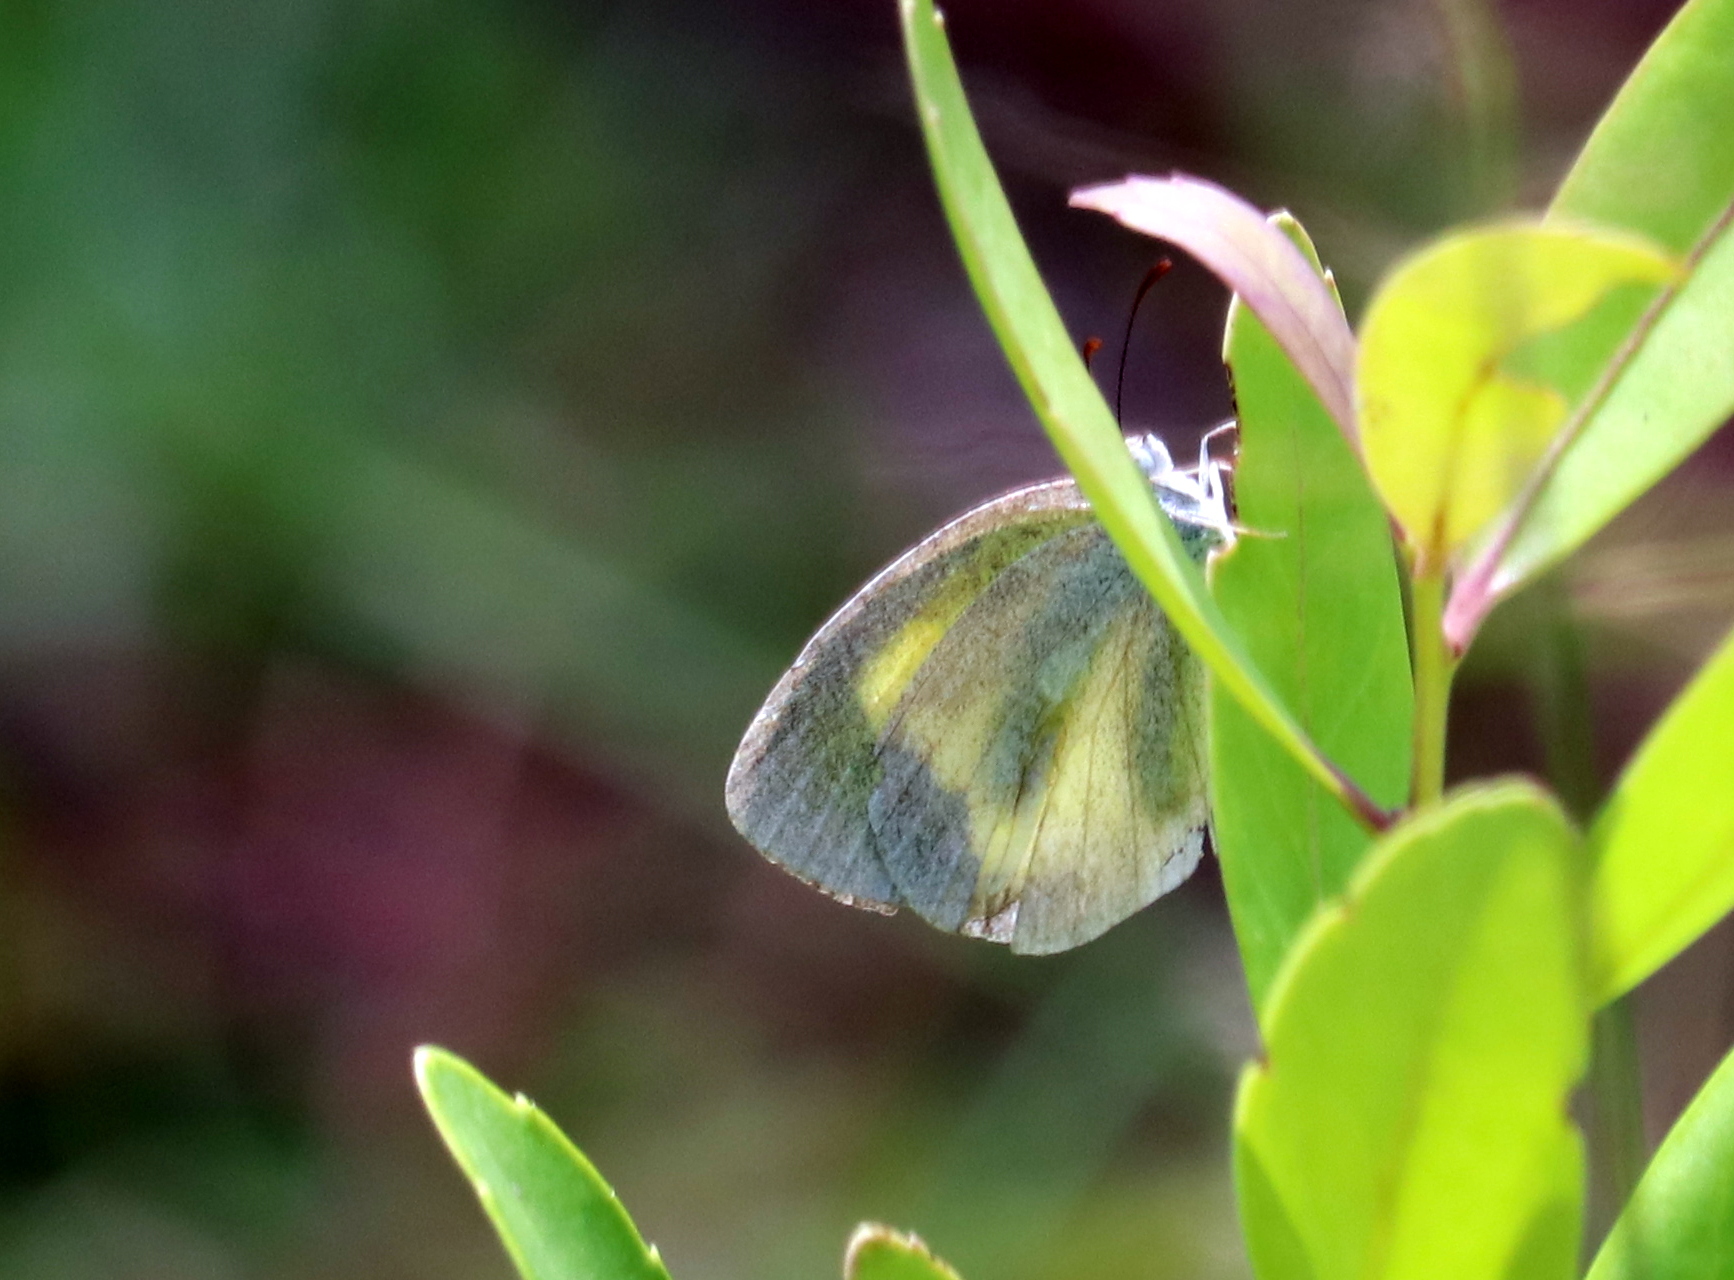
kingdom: Animalia
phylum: Arthropoda
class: Insecta
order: Lepidoptera
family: Pieridae
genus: Eurema
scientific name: Eurema daira
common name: Barred sulphur
